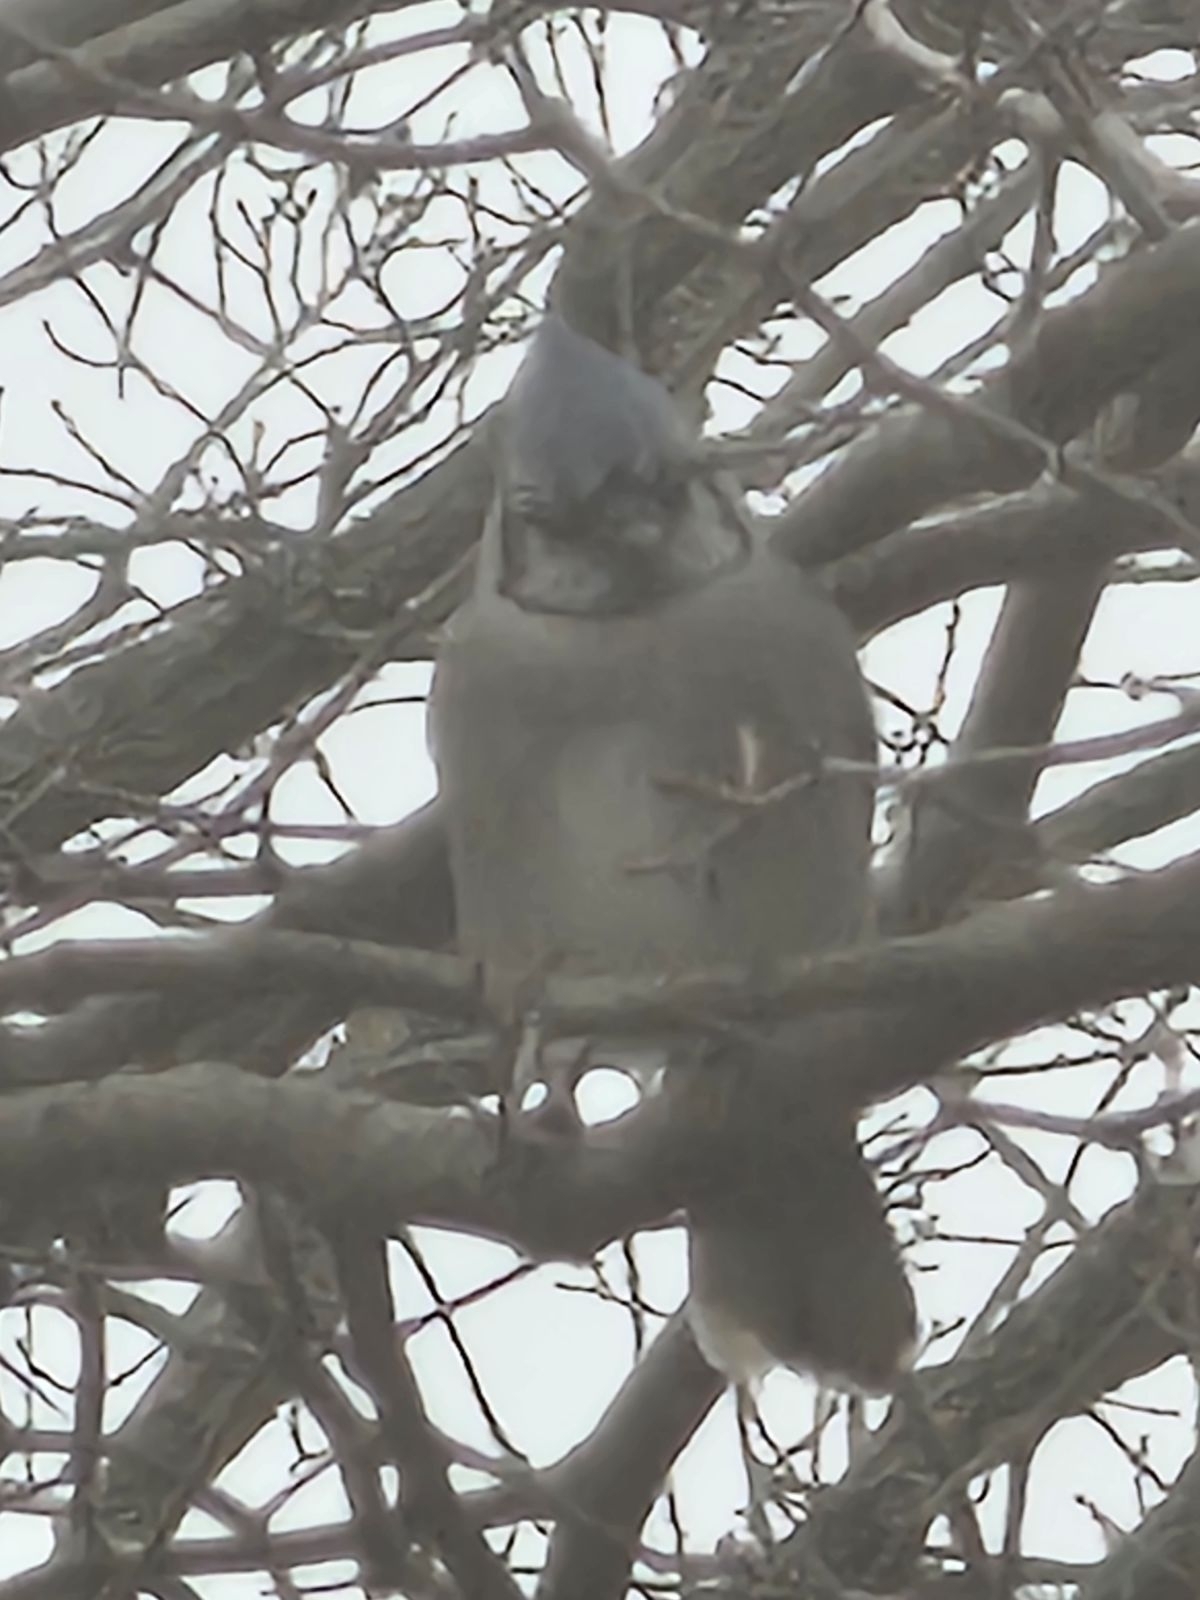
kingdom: Animalia
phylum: Chordata
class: Aves
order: Passeriformes
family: Corvidae
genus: Cyanocitta
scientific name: Cyanocitta cristata
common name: Blue jay
